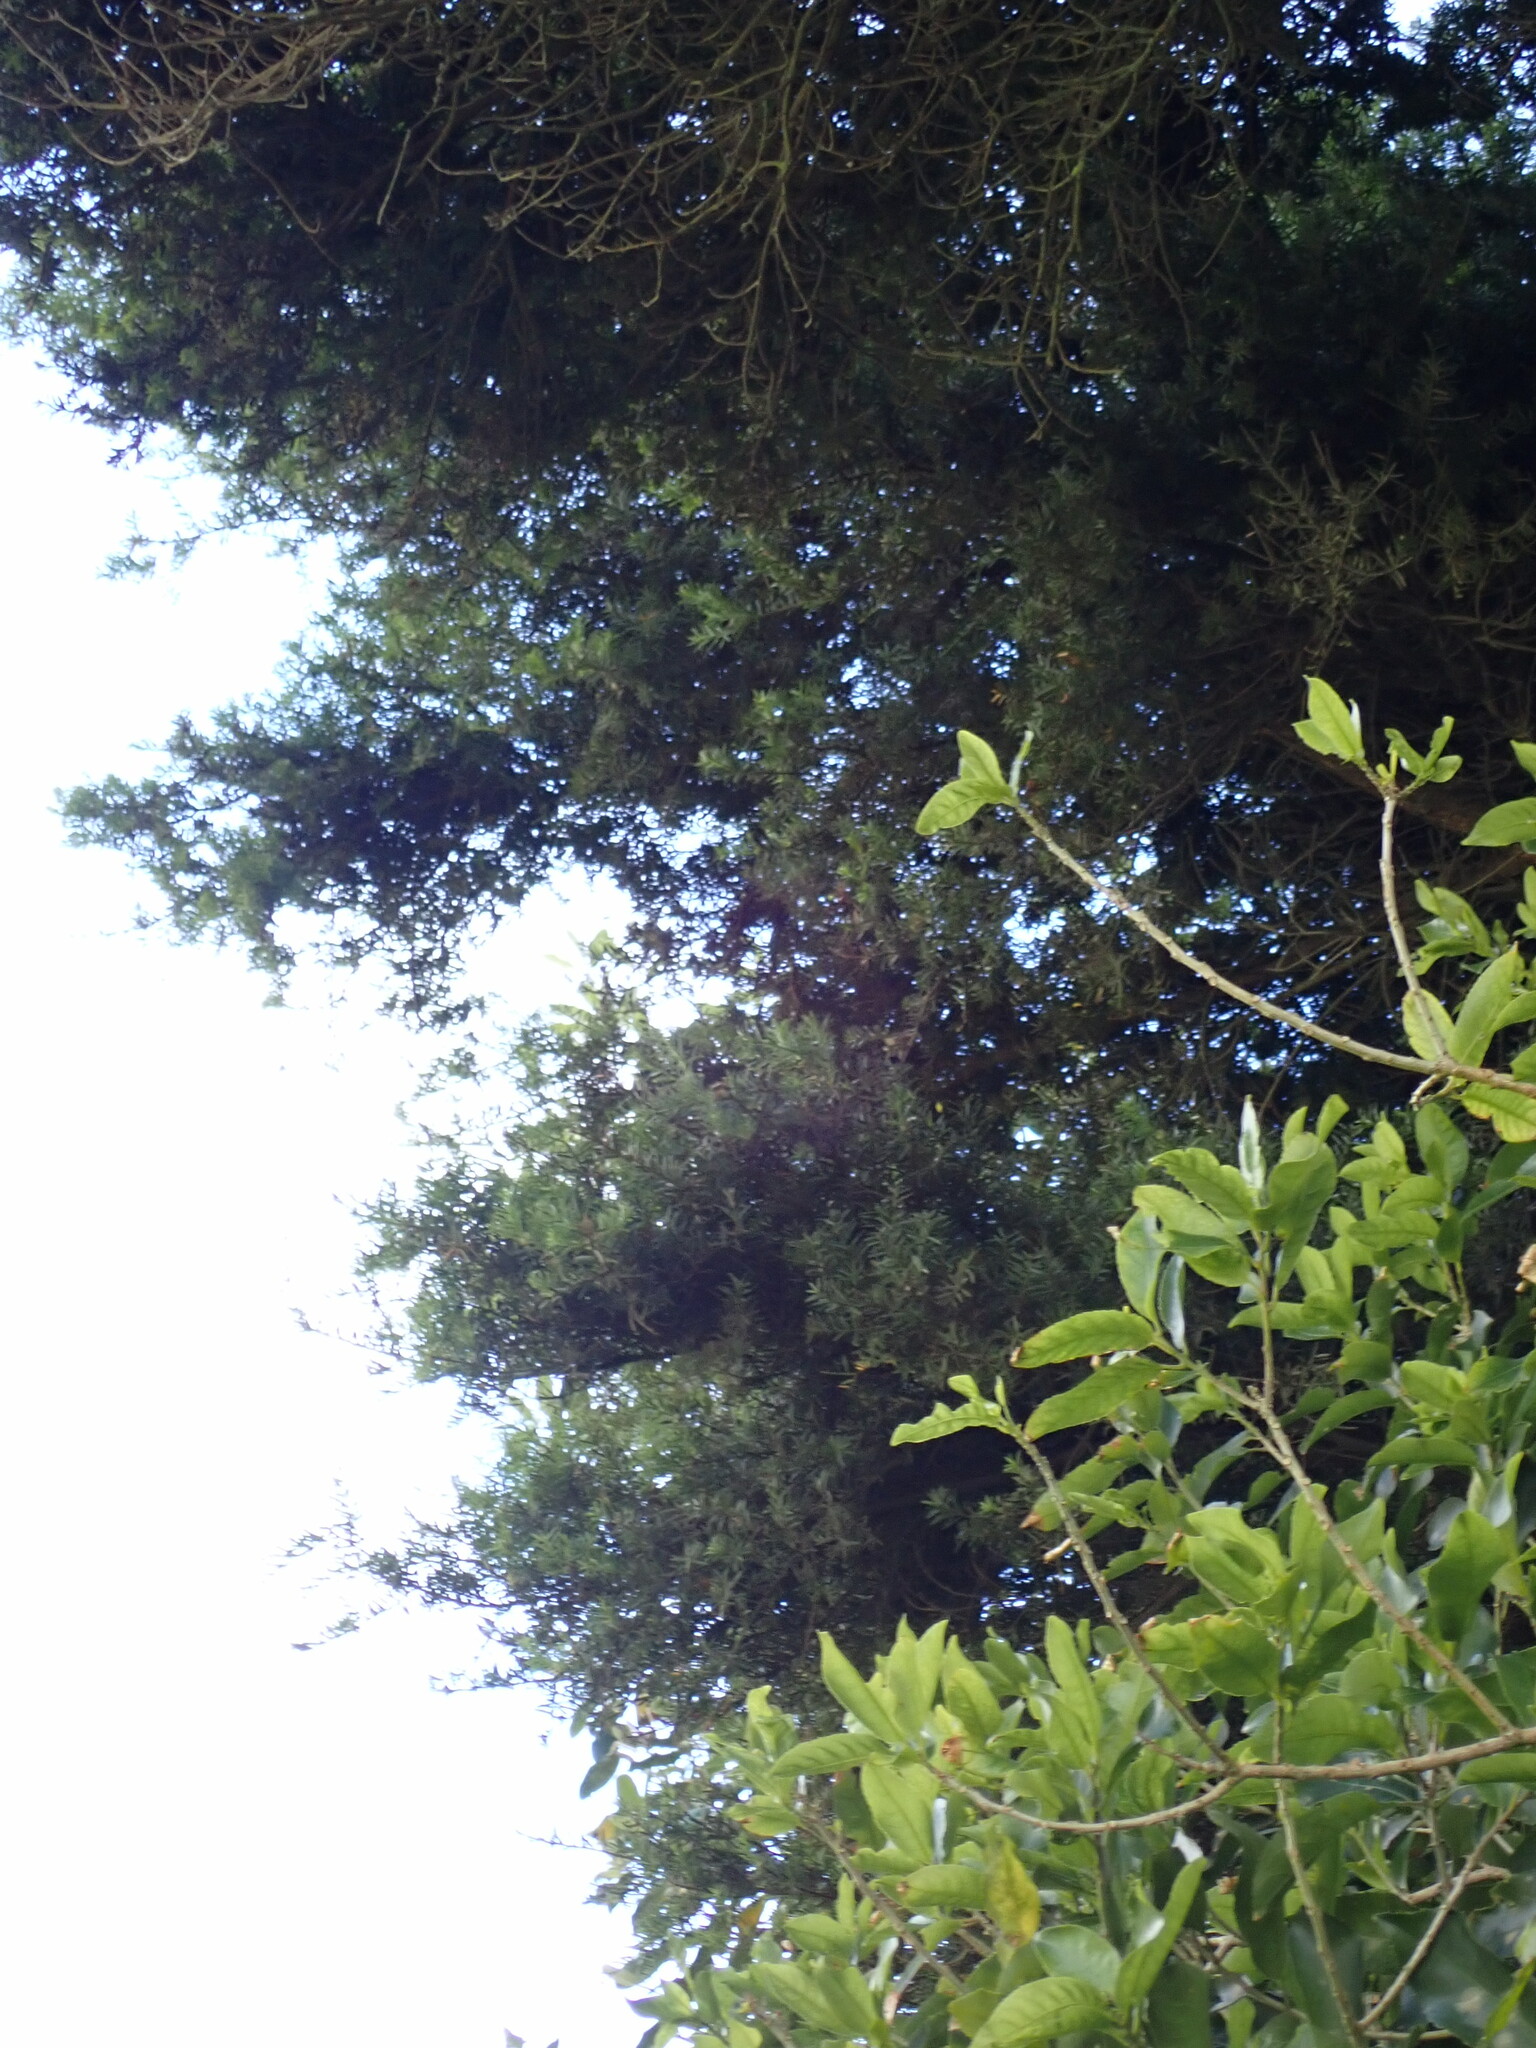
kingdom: Plantae
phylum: Tracheophyta
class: Pinopsida
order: Pinales
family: Podocarpaceae
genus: Podocarpus
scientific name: Podocarpus totara
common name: Totara
